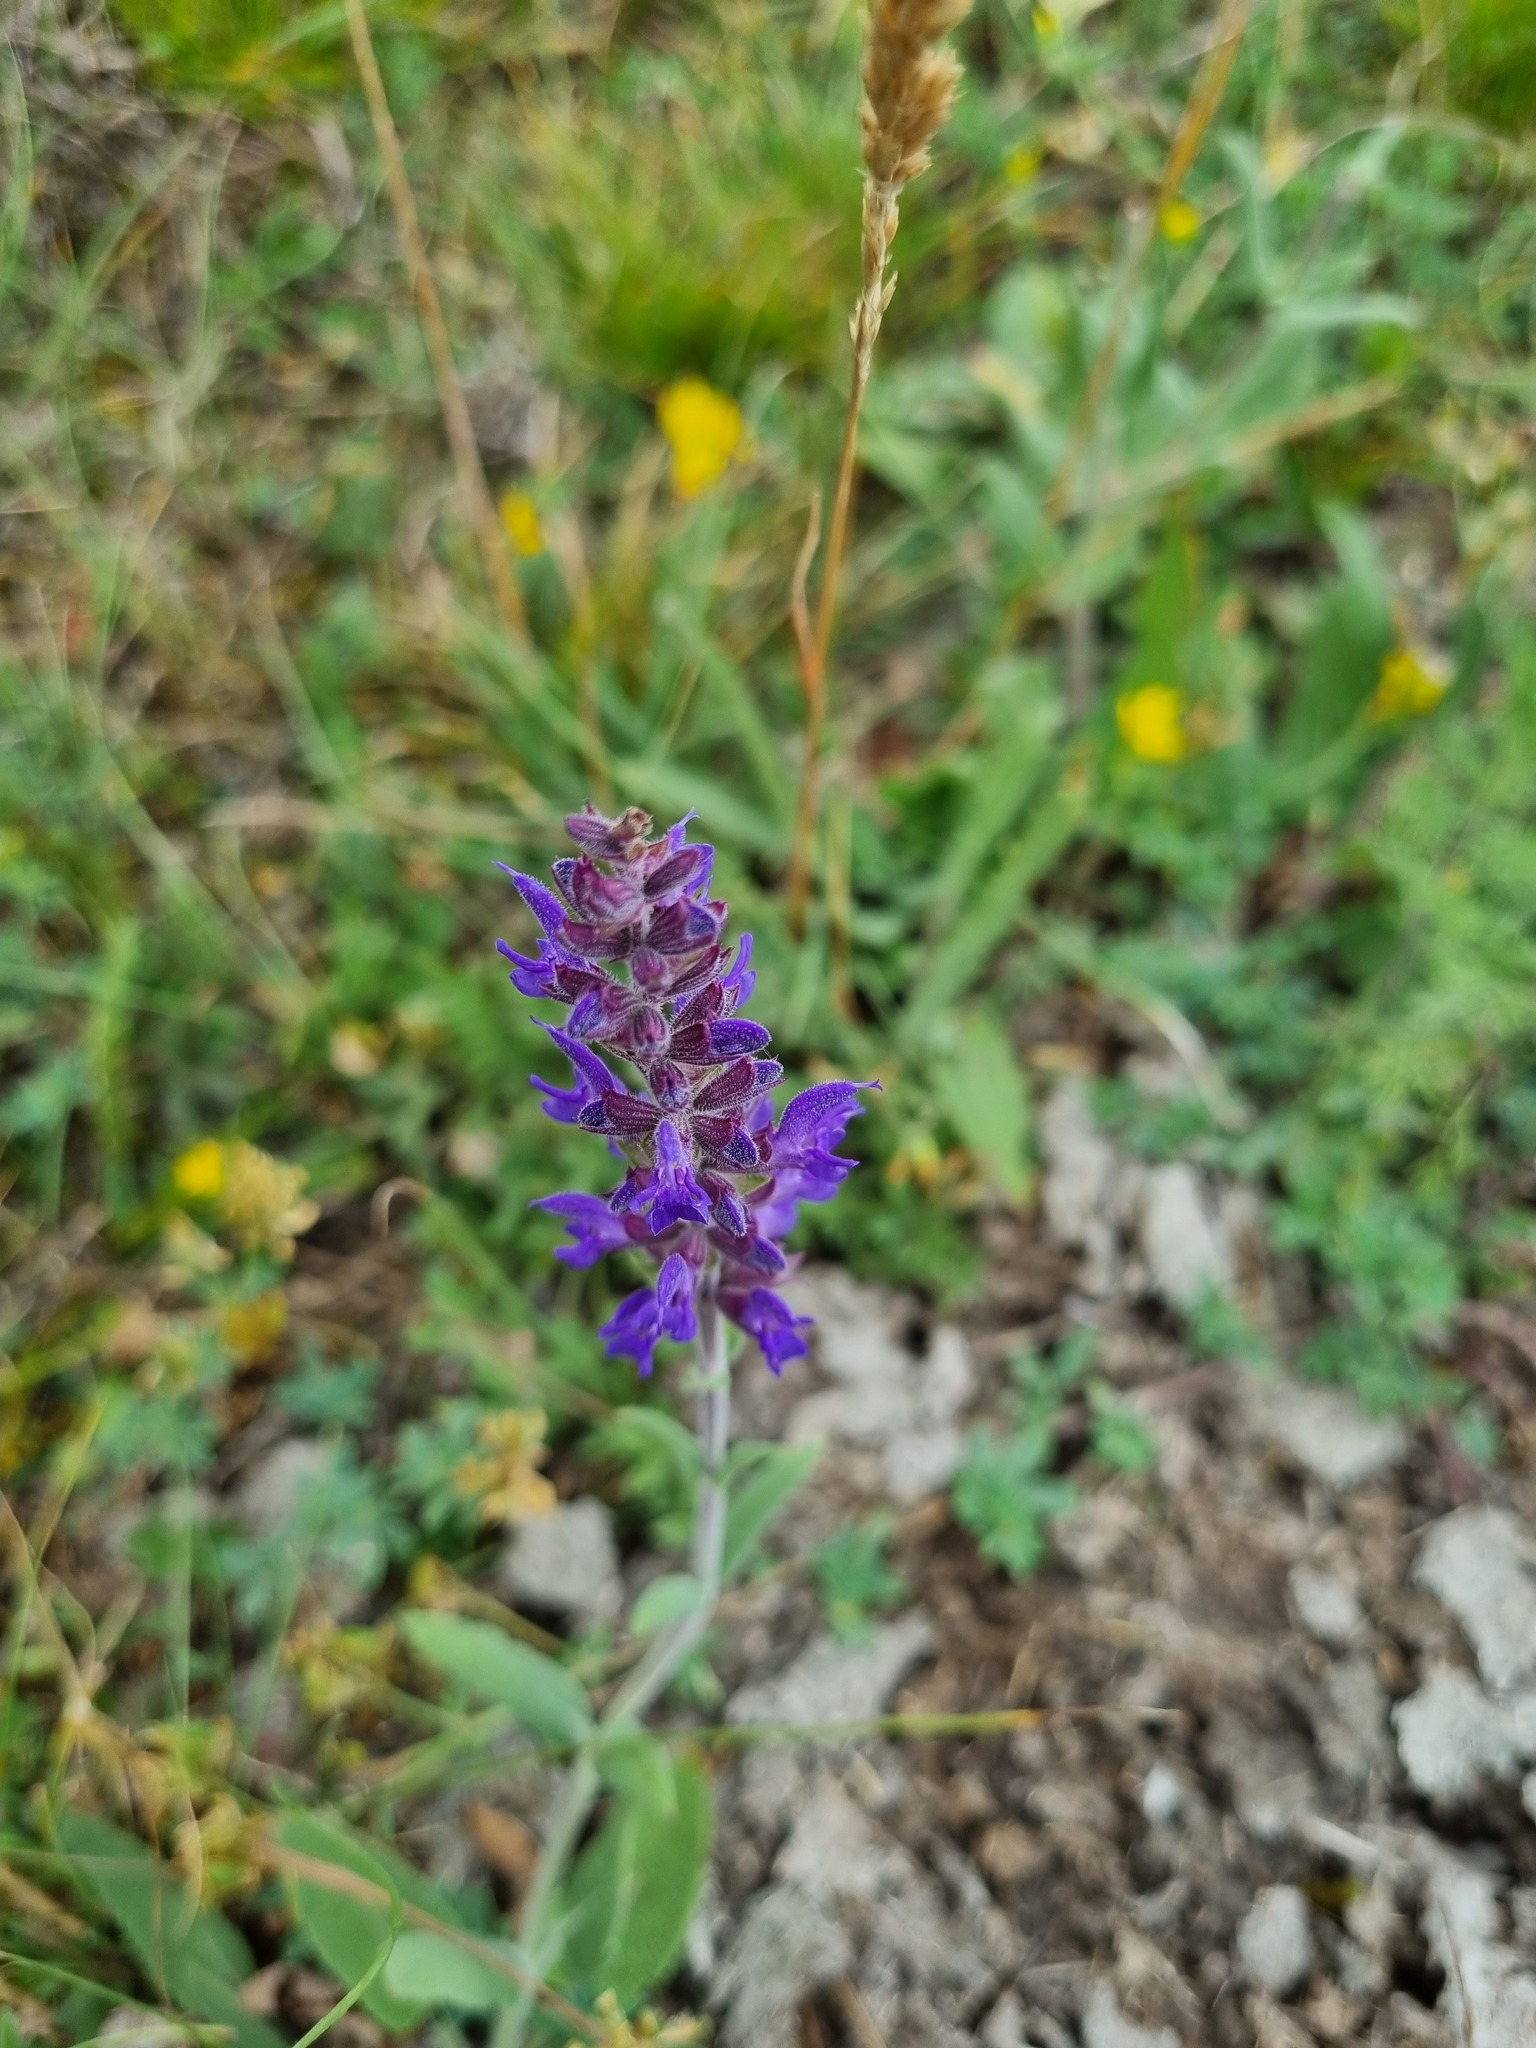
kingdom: Plantae
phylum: Tracheophyta
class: Magnoliopsida
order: Lamiales
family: Lamiaceae
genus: Salvia
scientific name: Salvia nemorosa
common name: Balkan clary
